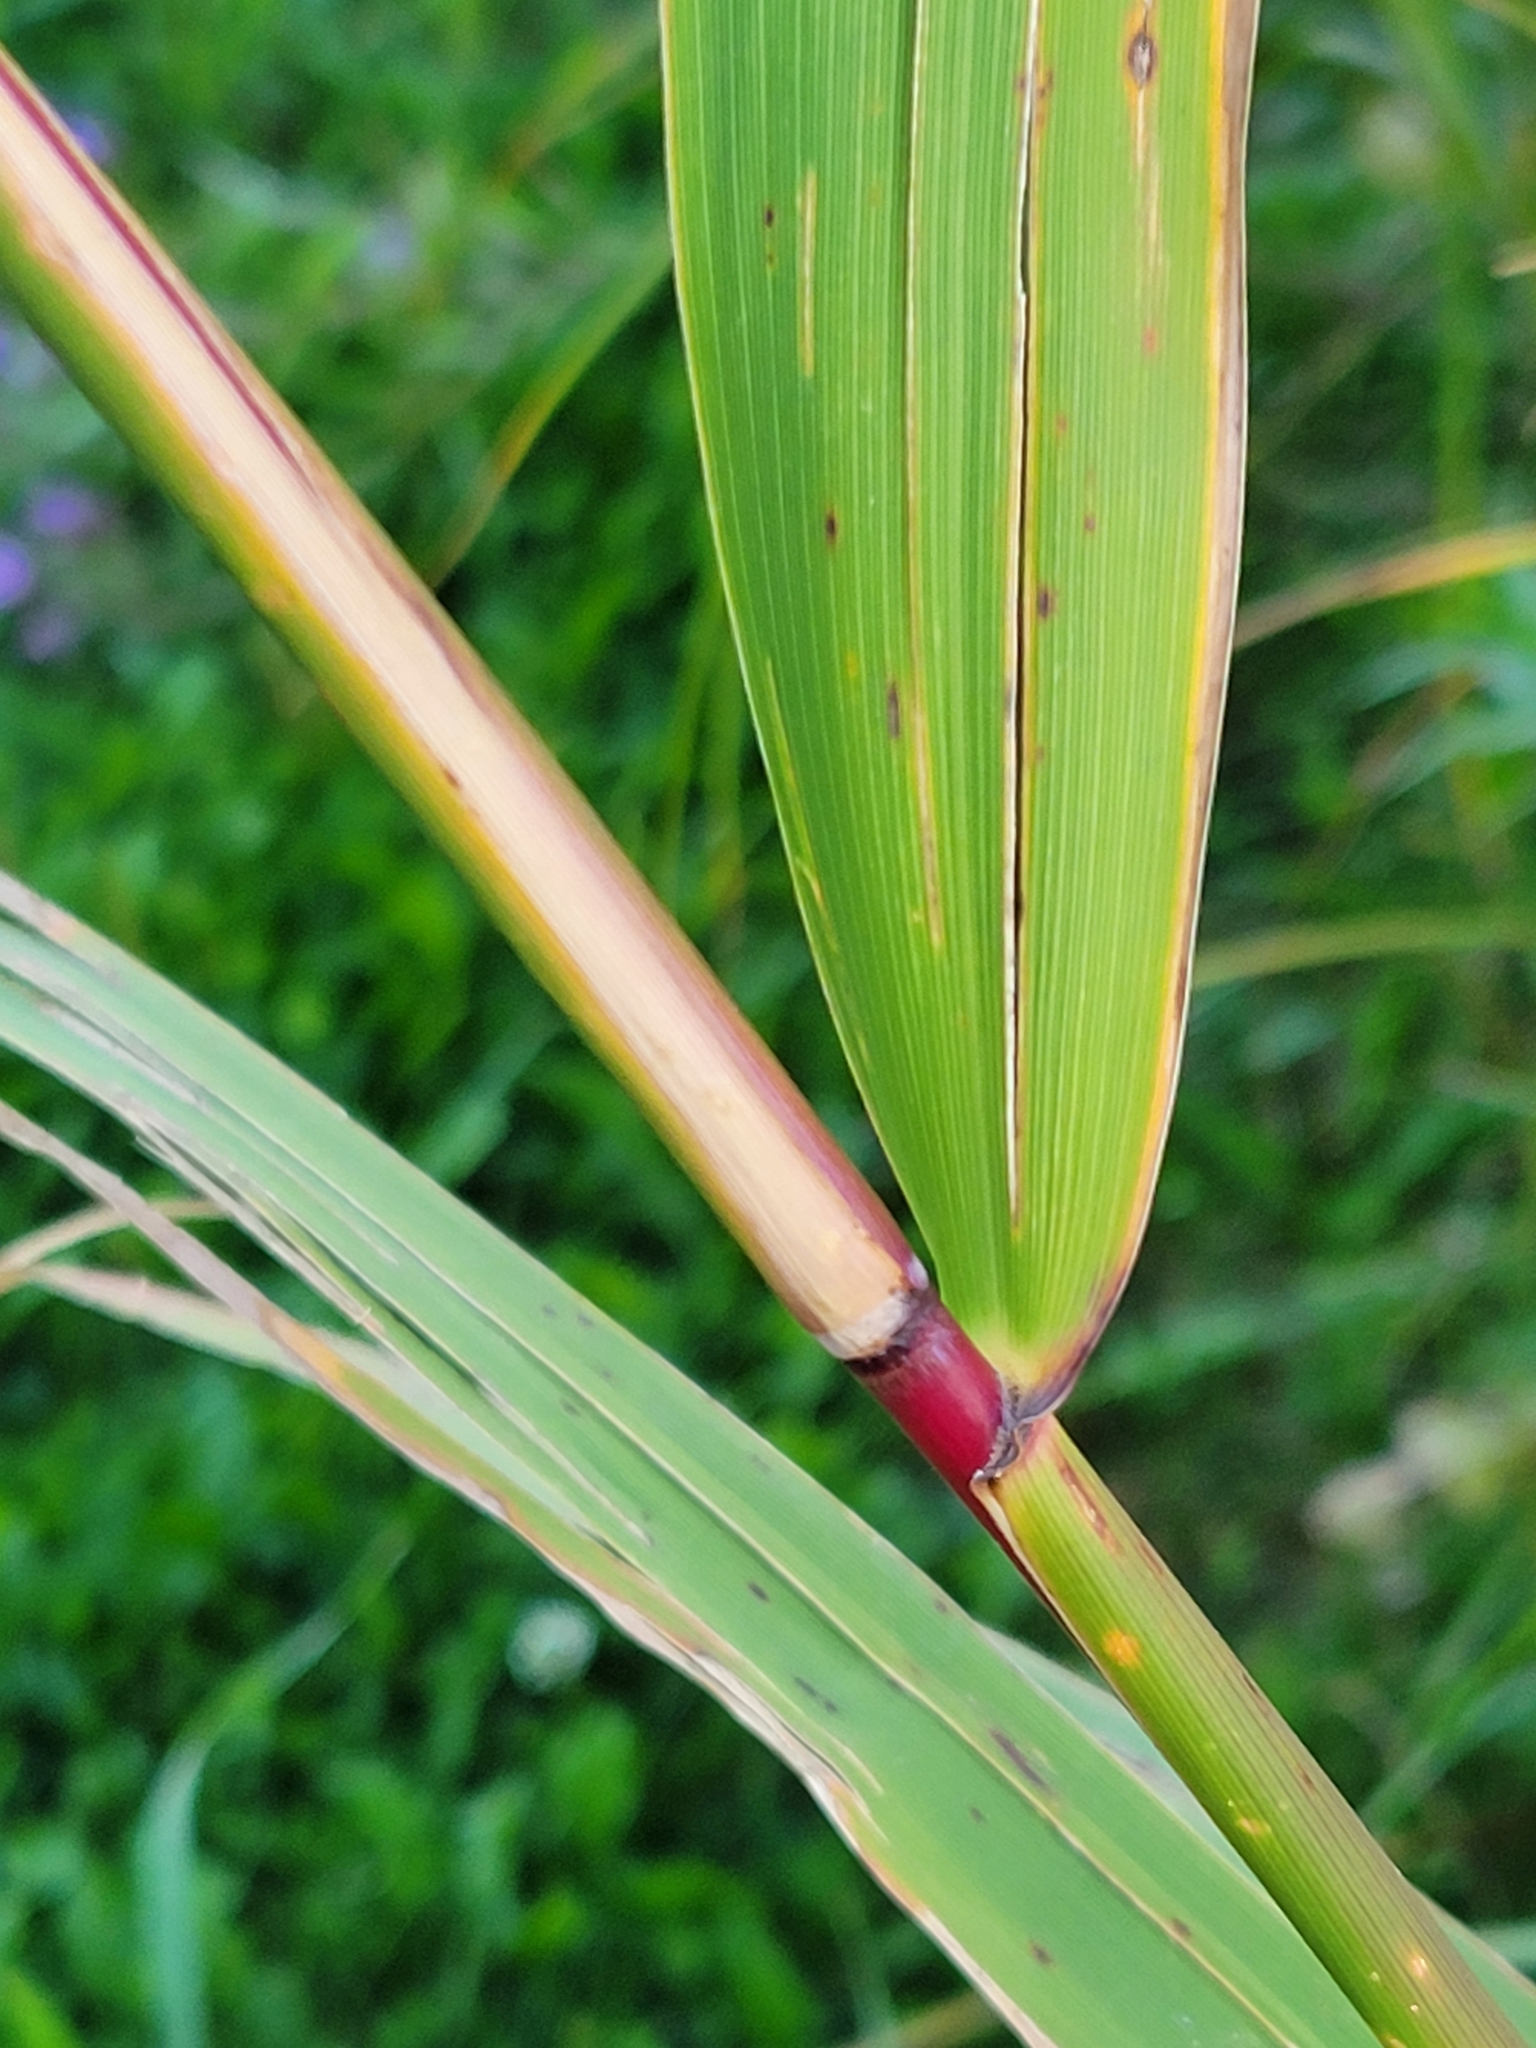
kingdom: Plantae
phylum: Tracheophyta
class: Liliopsida
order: Poales
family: Poaceae
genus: Phragmites
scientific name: Phragmites australis
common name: Common reed
